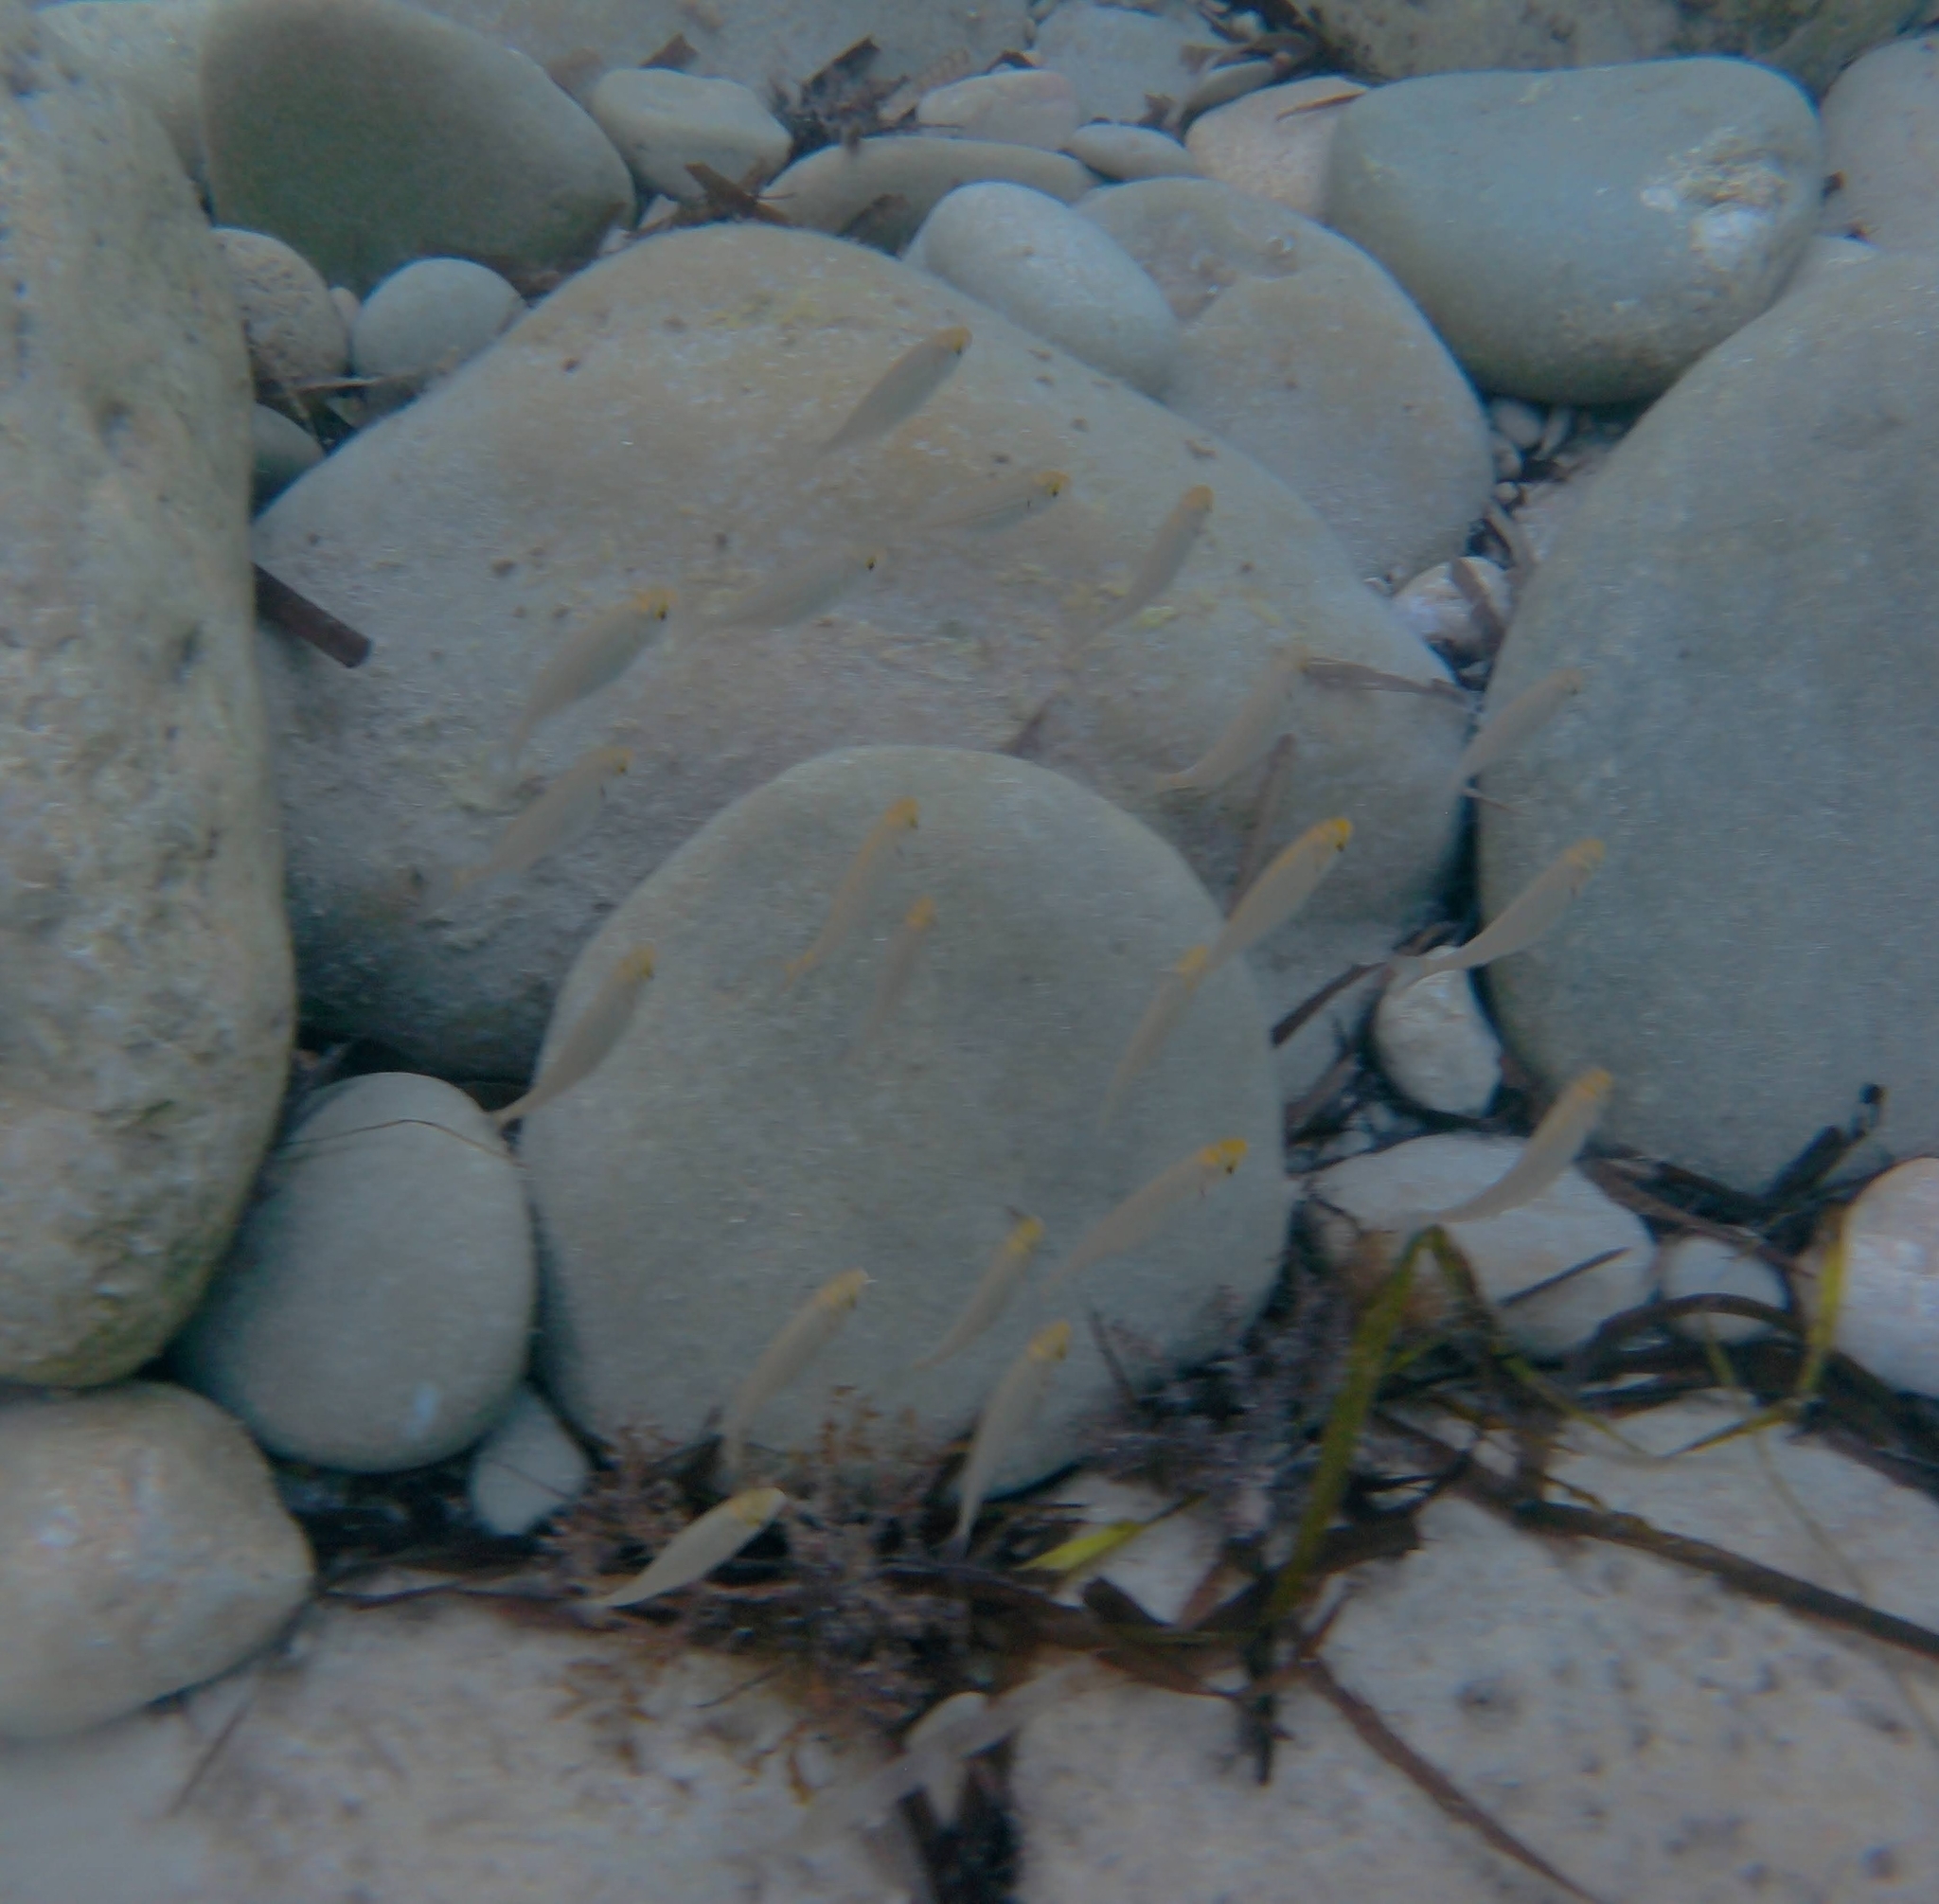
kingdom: Animalia
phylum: Chordata
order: Perciformes
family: Sparidae
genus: Sarpa
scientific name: Sarpa salpa
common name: Salema
